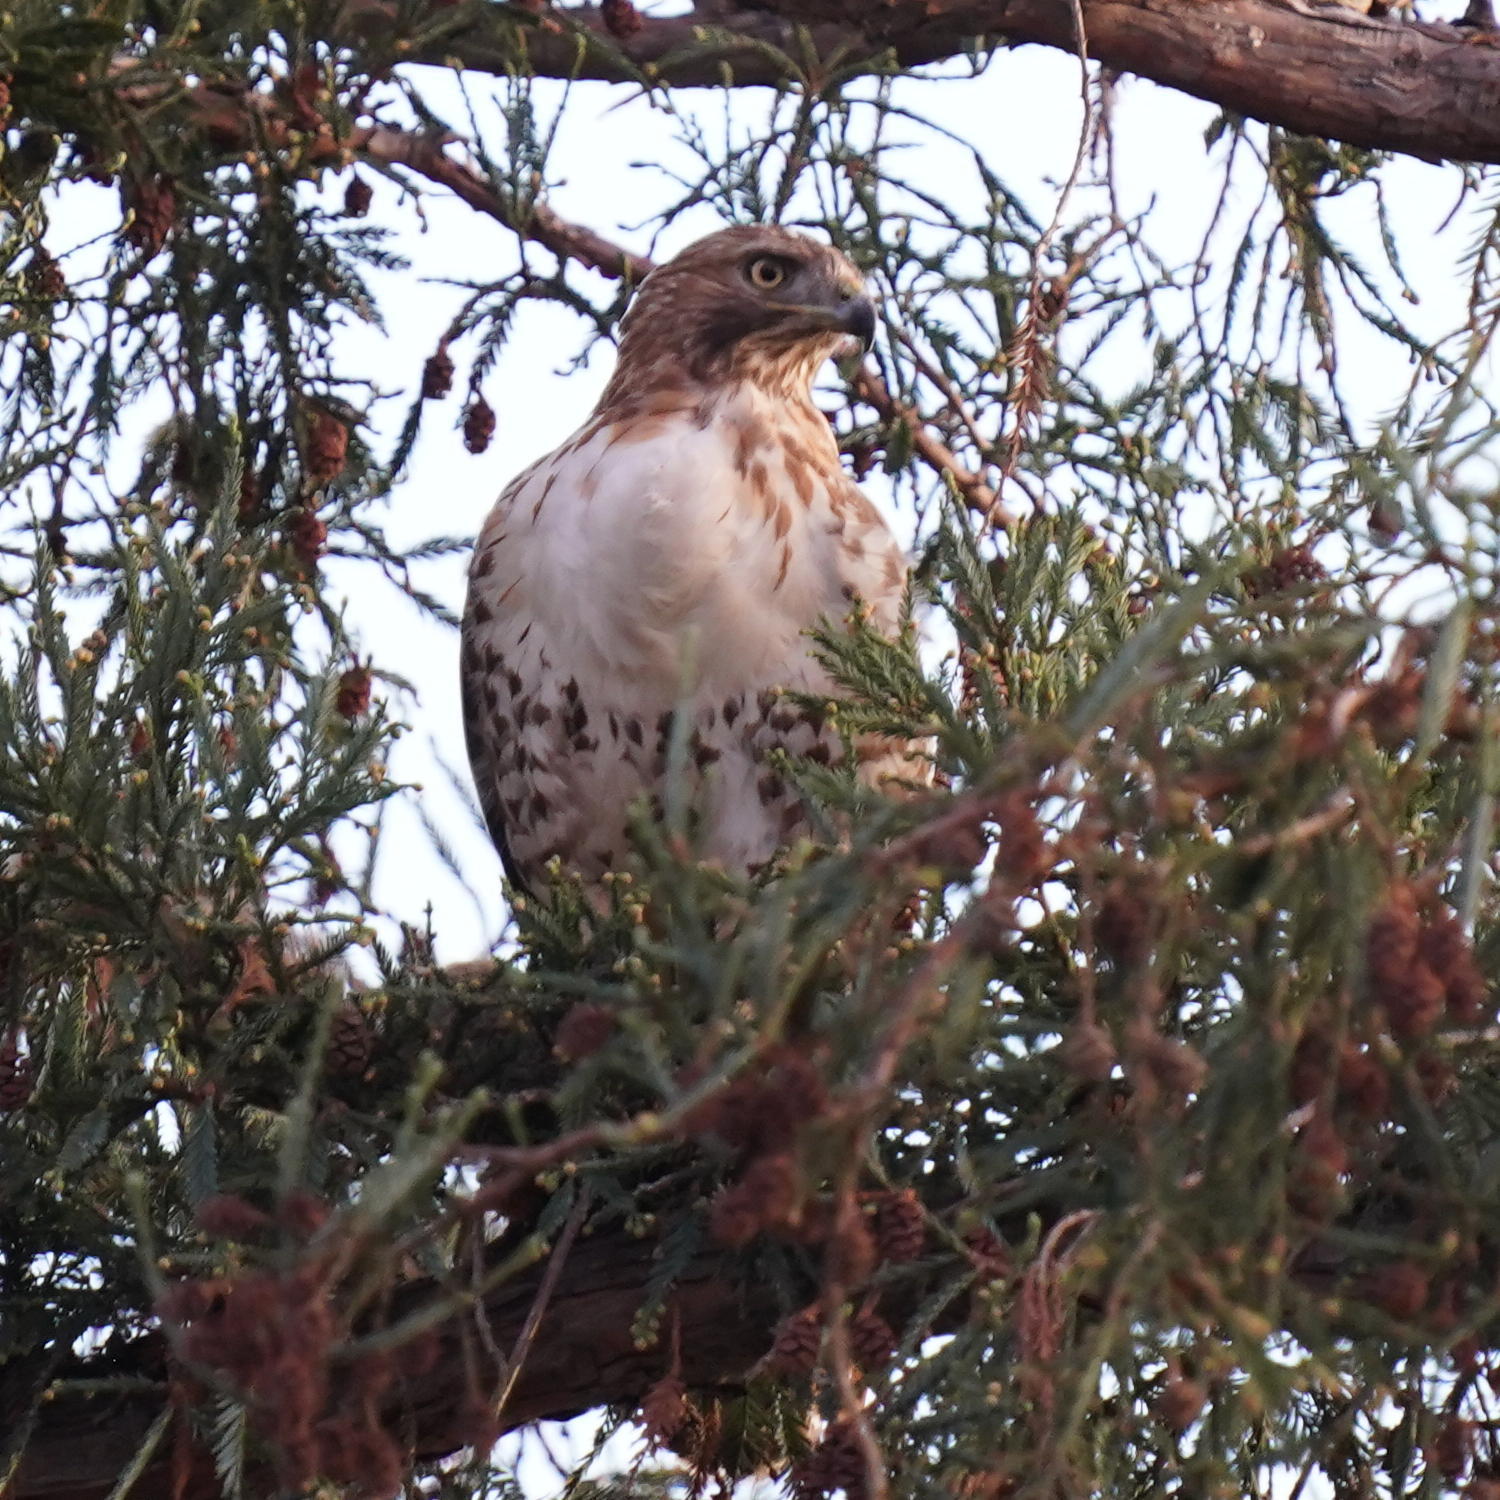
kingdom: Animalia
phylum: Chordata
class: Aves
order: Accipitriformes
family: Accipitridae
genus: Buteo
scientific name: Buteo jamaicensis
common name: Red-tailed hawk
